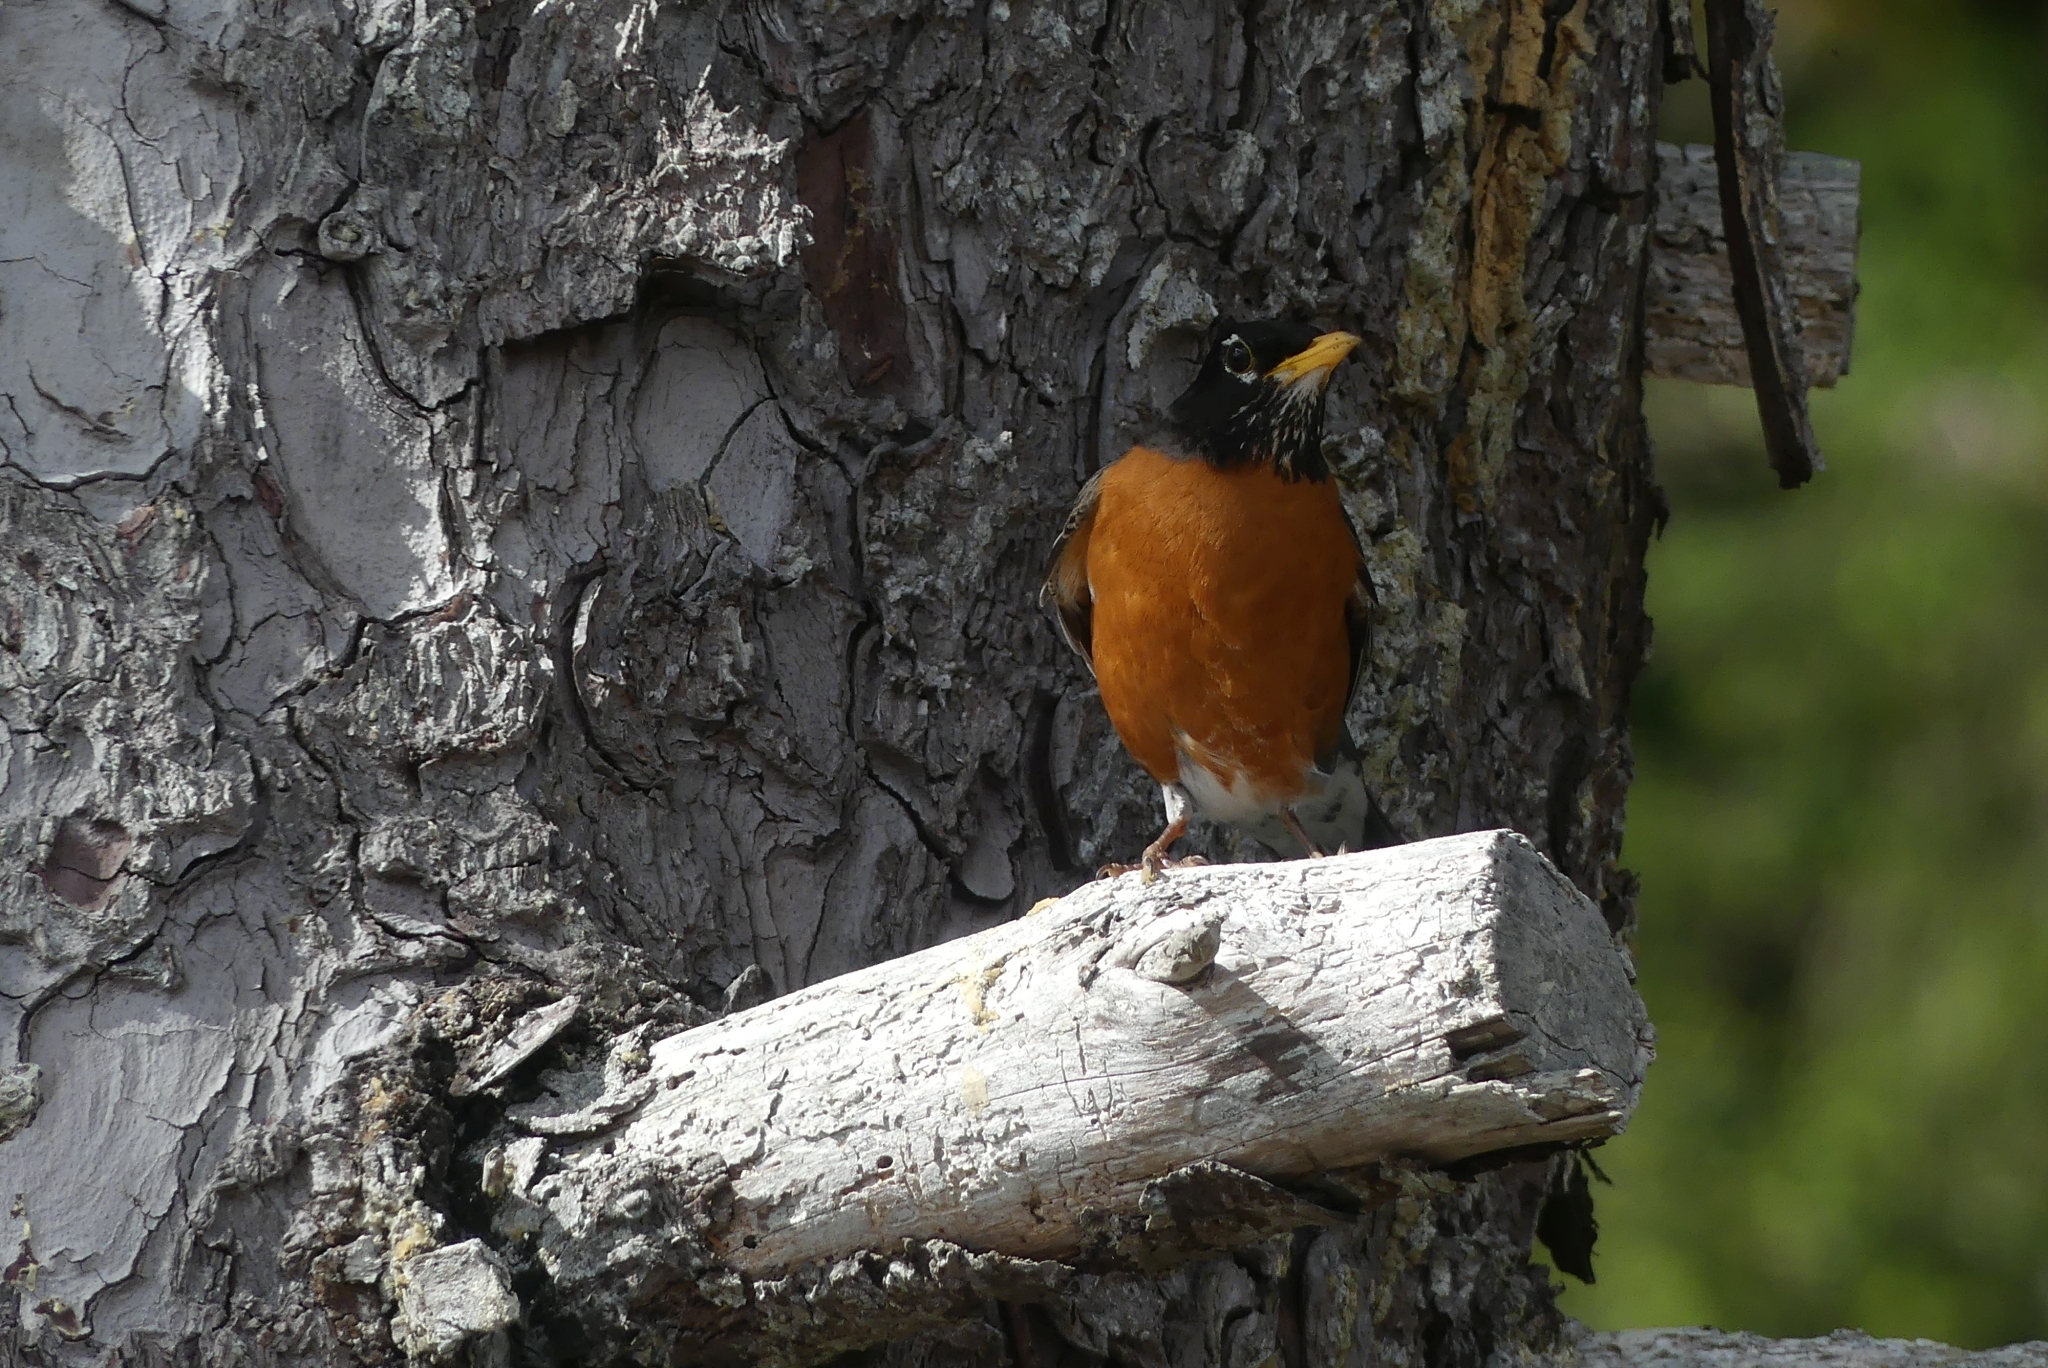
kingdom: Animalia
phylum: Chordata
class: Aves
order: Passeriformes
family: Turdidae
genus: Turdus
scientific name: Turdus migratorius
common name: American robin
